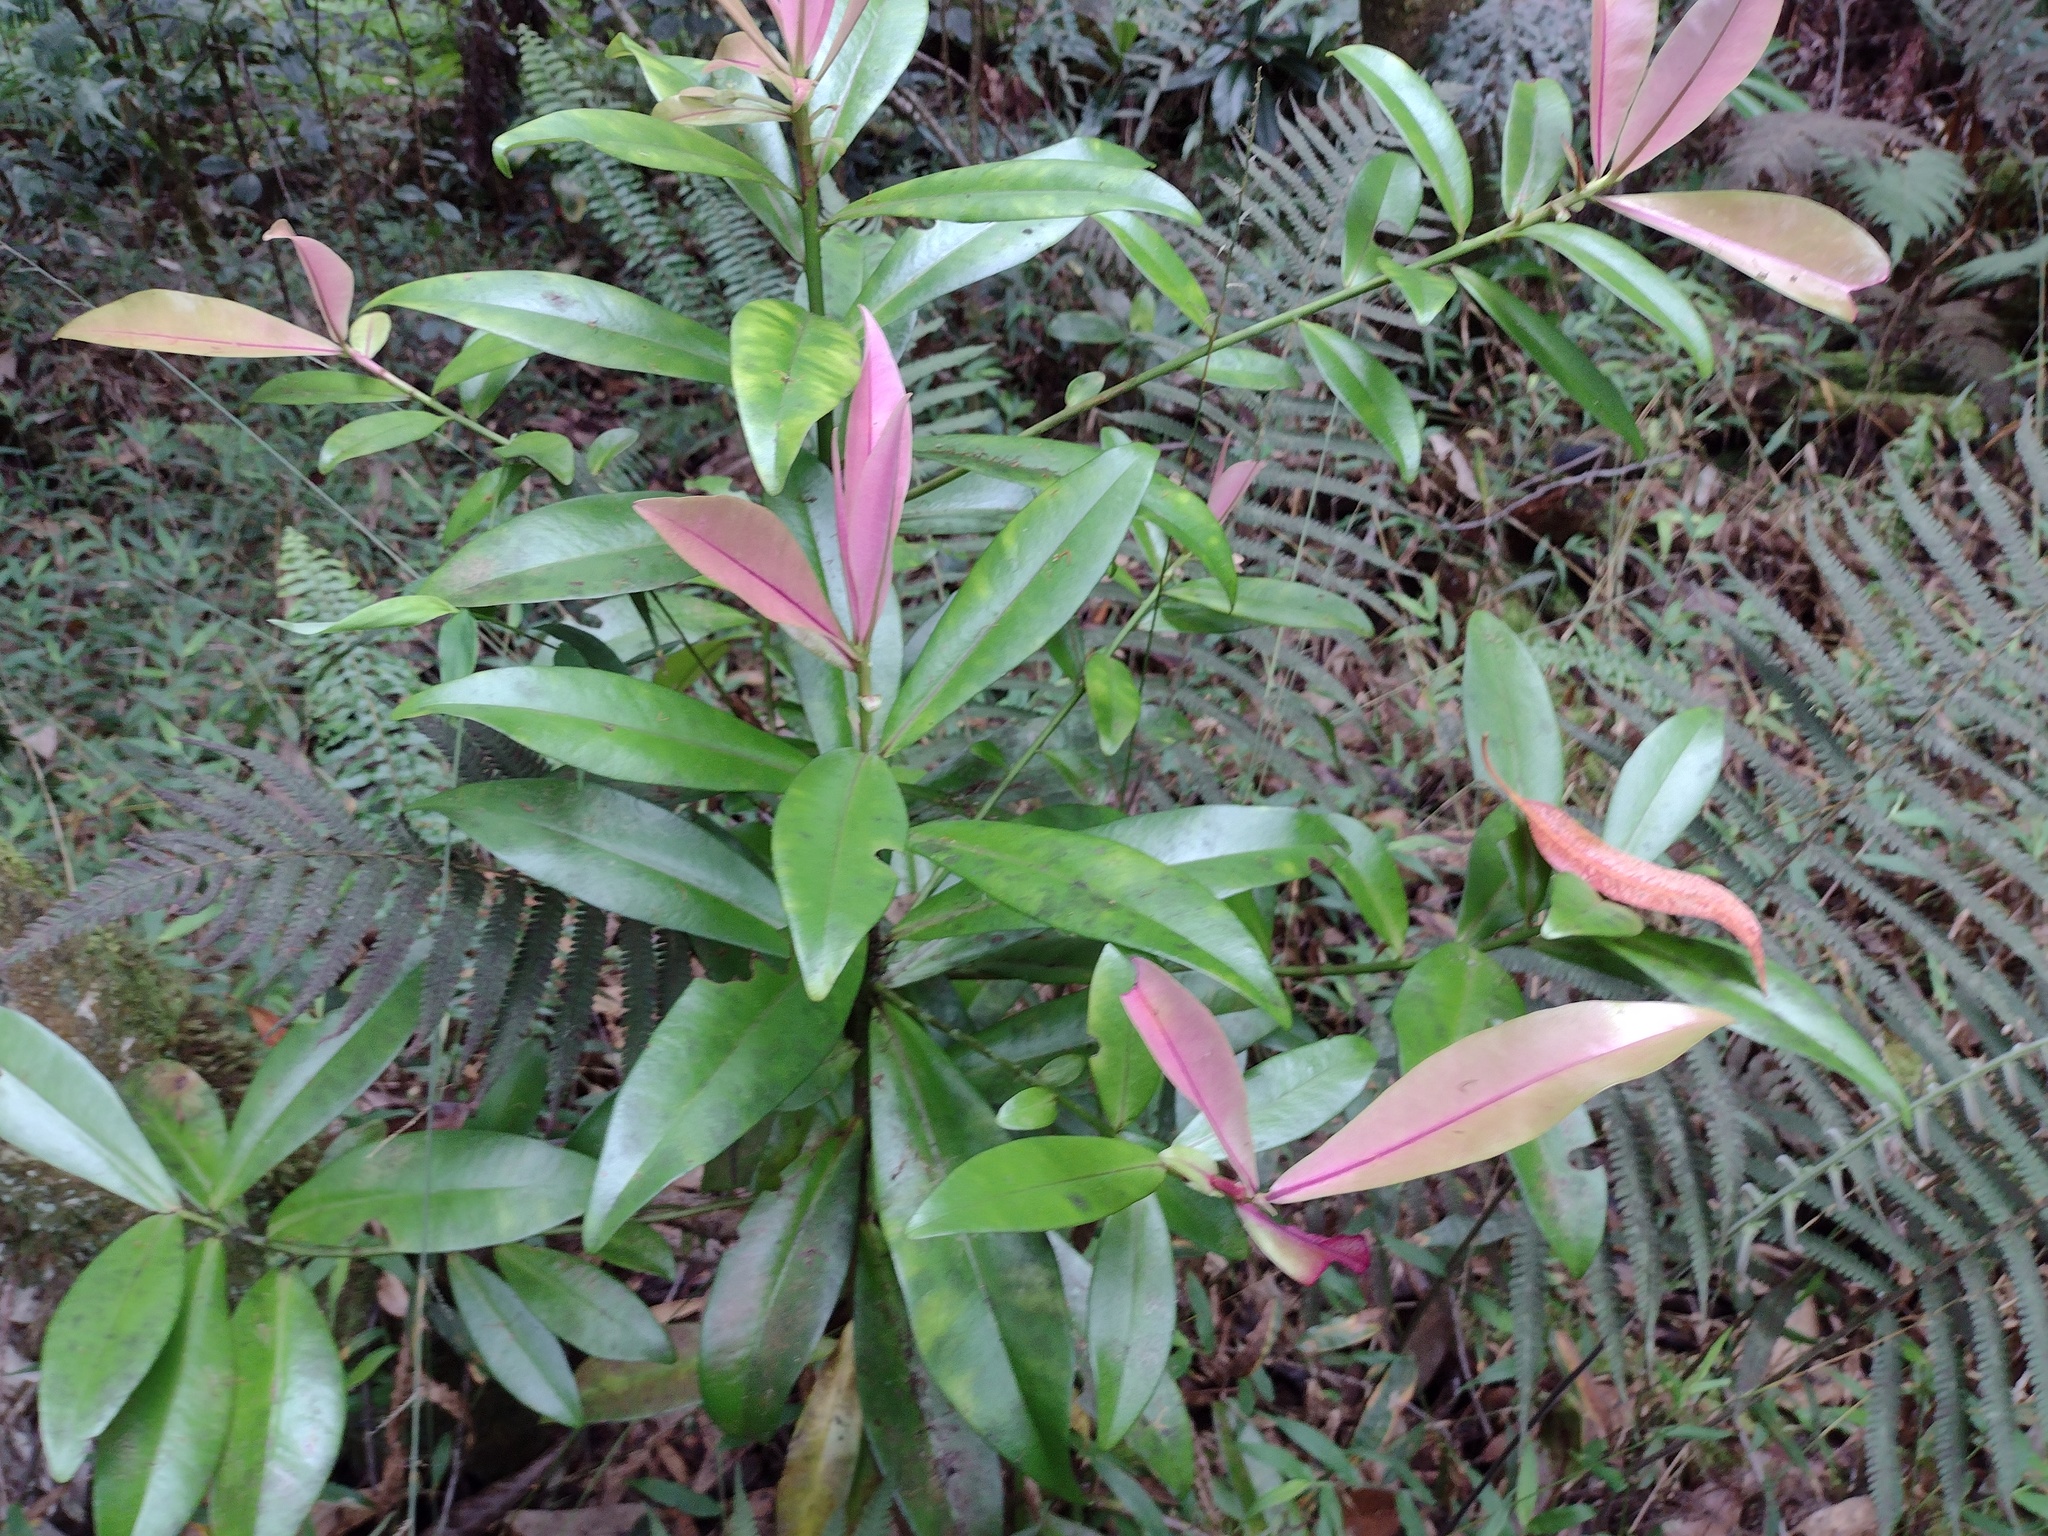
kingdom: Plantae
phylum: Tracheophyta
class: Magnoliopsida
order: Ericales
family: Primulaceae
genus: Myrsine
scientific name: Myrsine lessertiana
